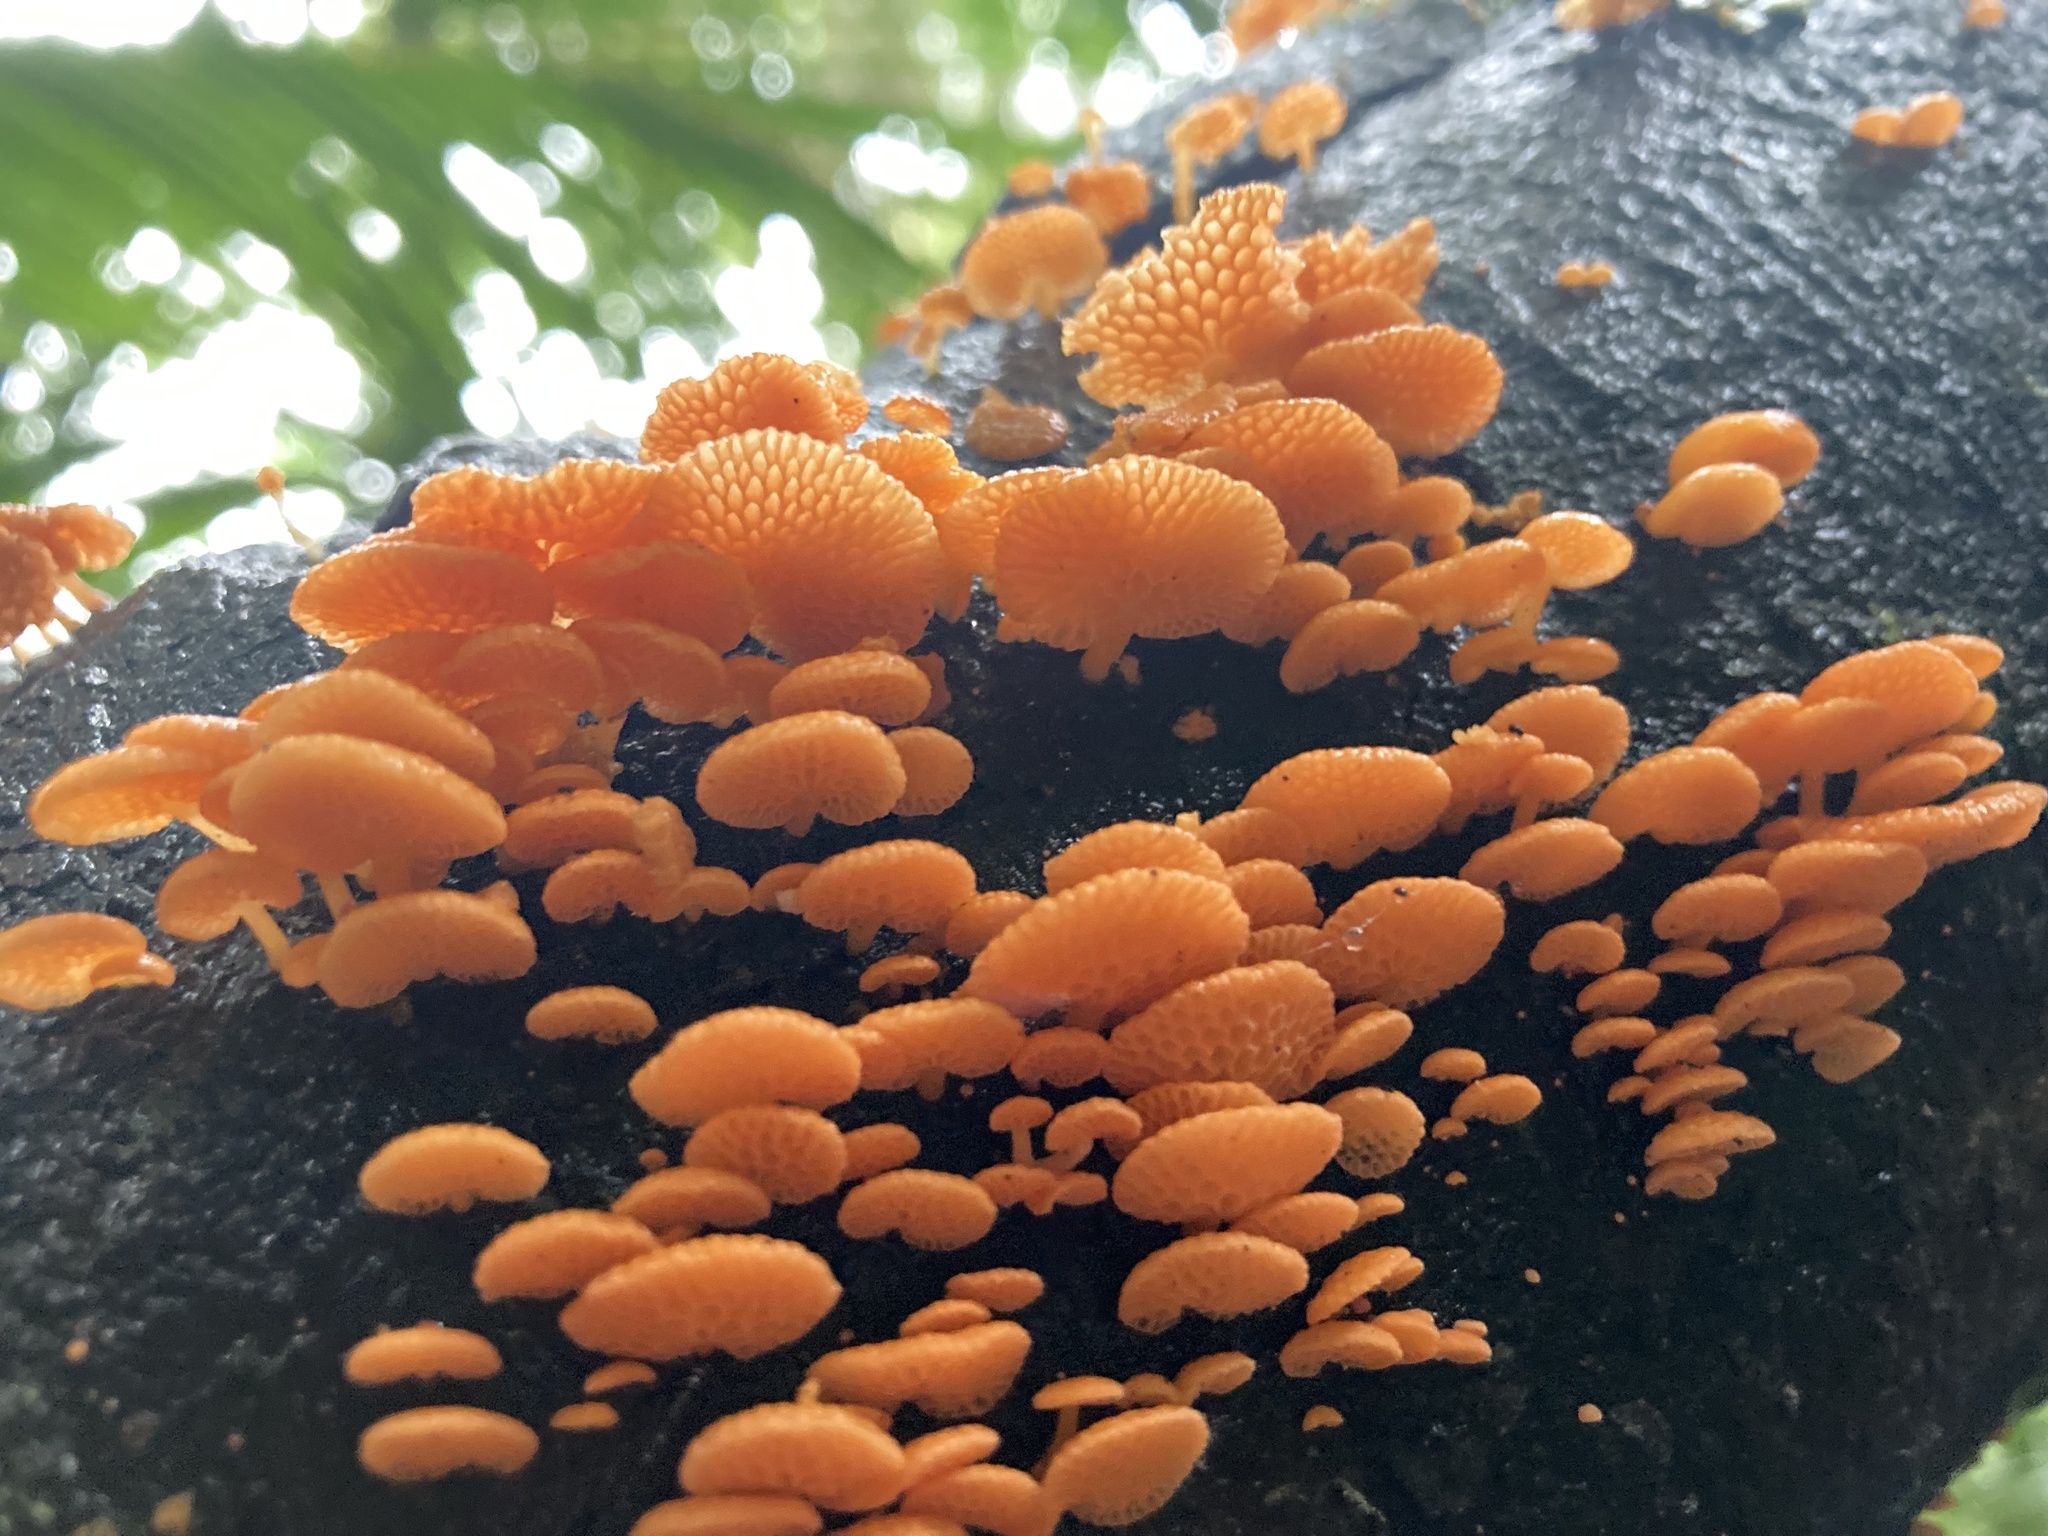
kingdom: Fungi
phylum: Basidiomycota
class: Agaricomycetes
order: Agaricales
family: Mycenaceae
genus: Favolaschia
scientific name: Favolaschia claudopus
